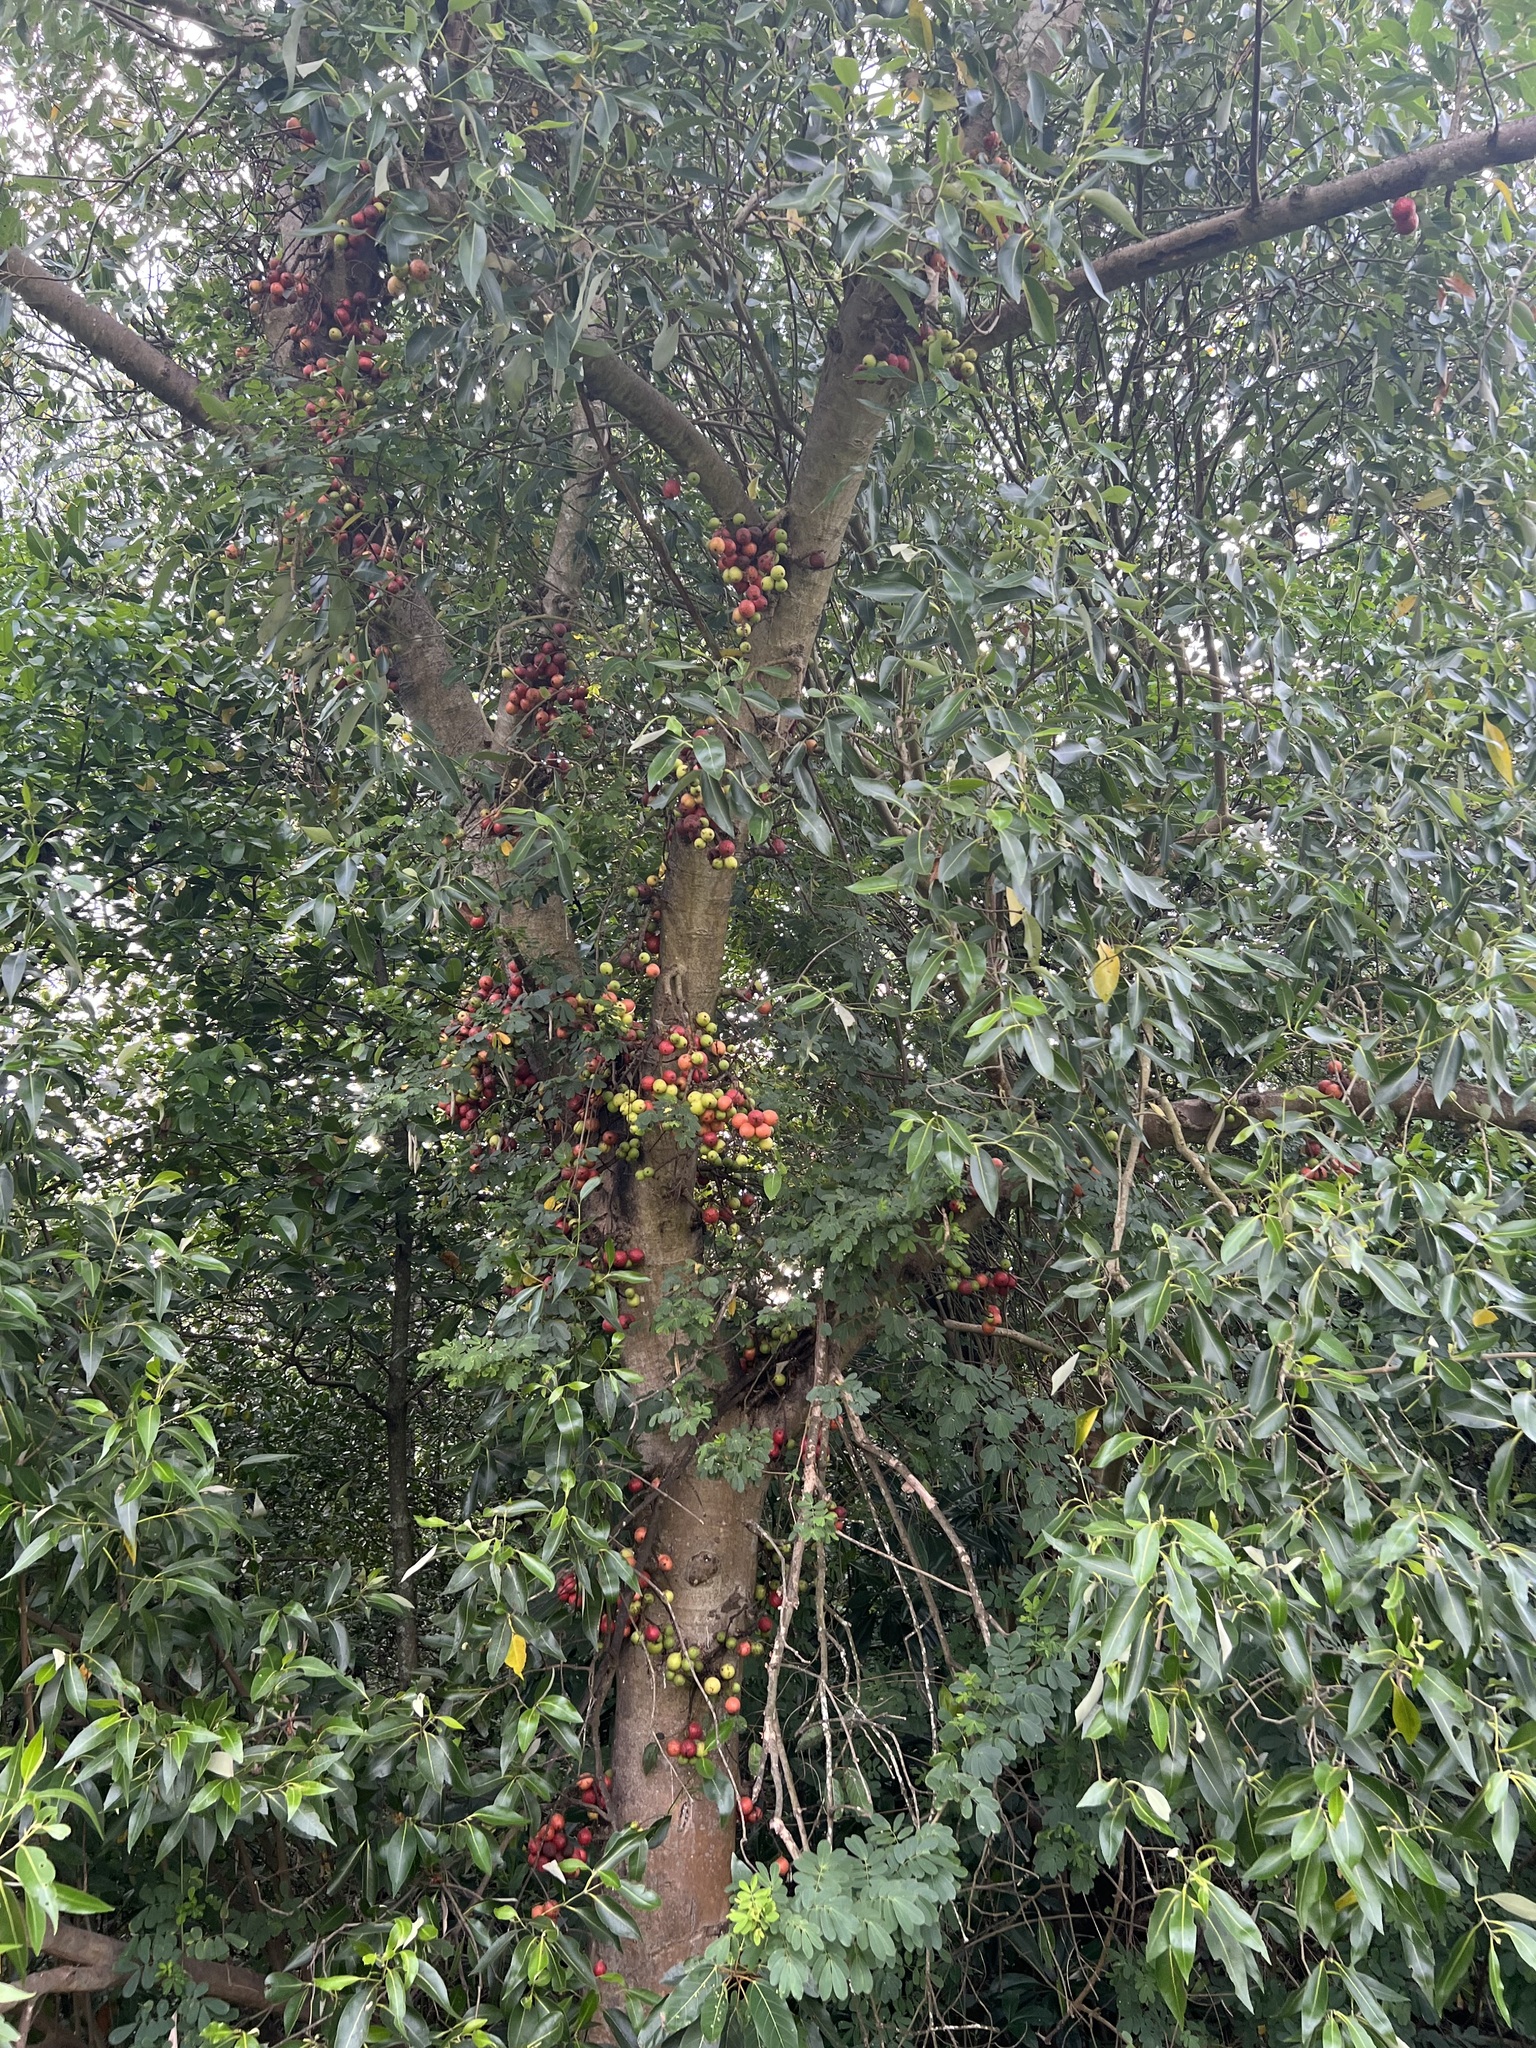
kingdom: Plantae
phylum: Tracheophyta
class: Magnoliopsida
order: Rosales
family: Moraceae
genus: Ficus
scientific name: Ficus racemosa
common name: Cluster fig
